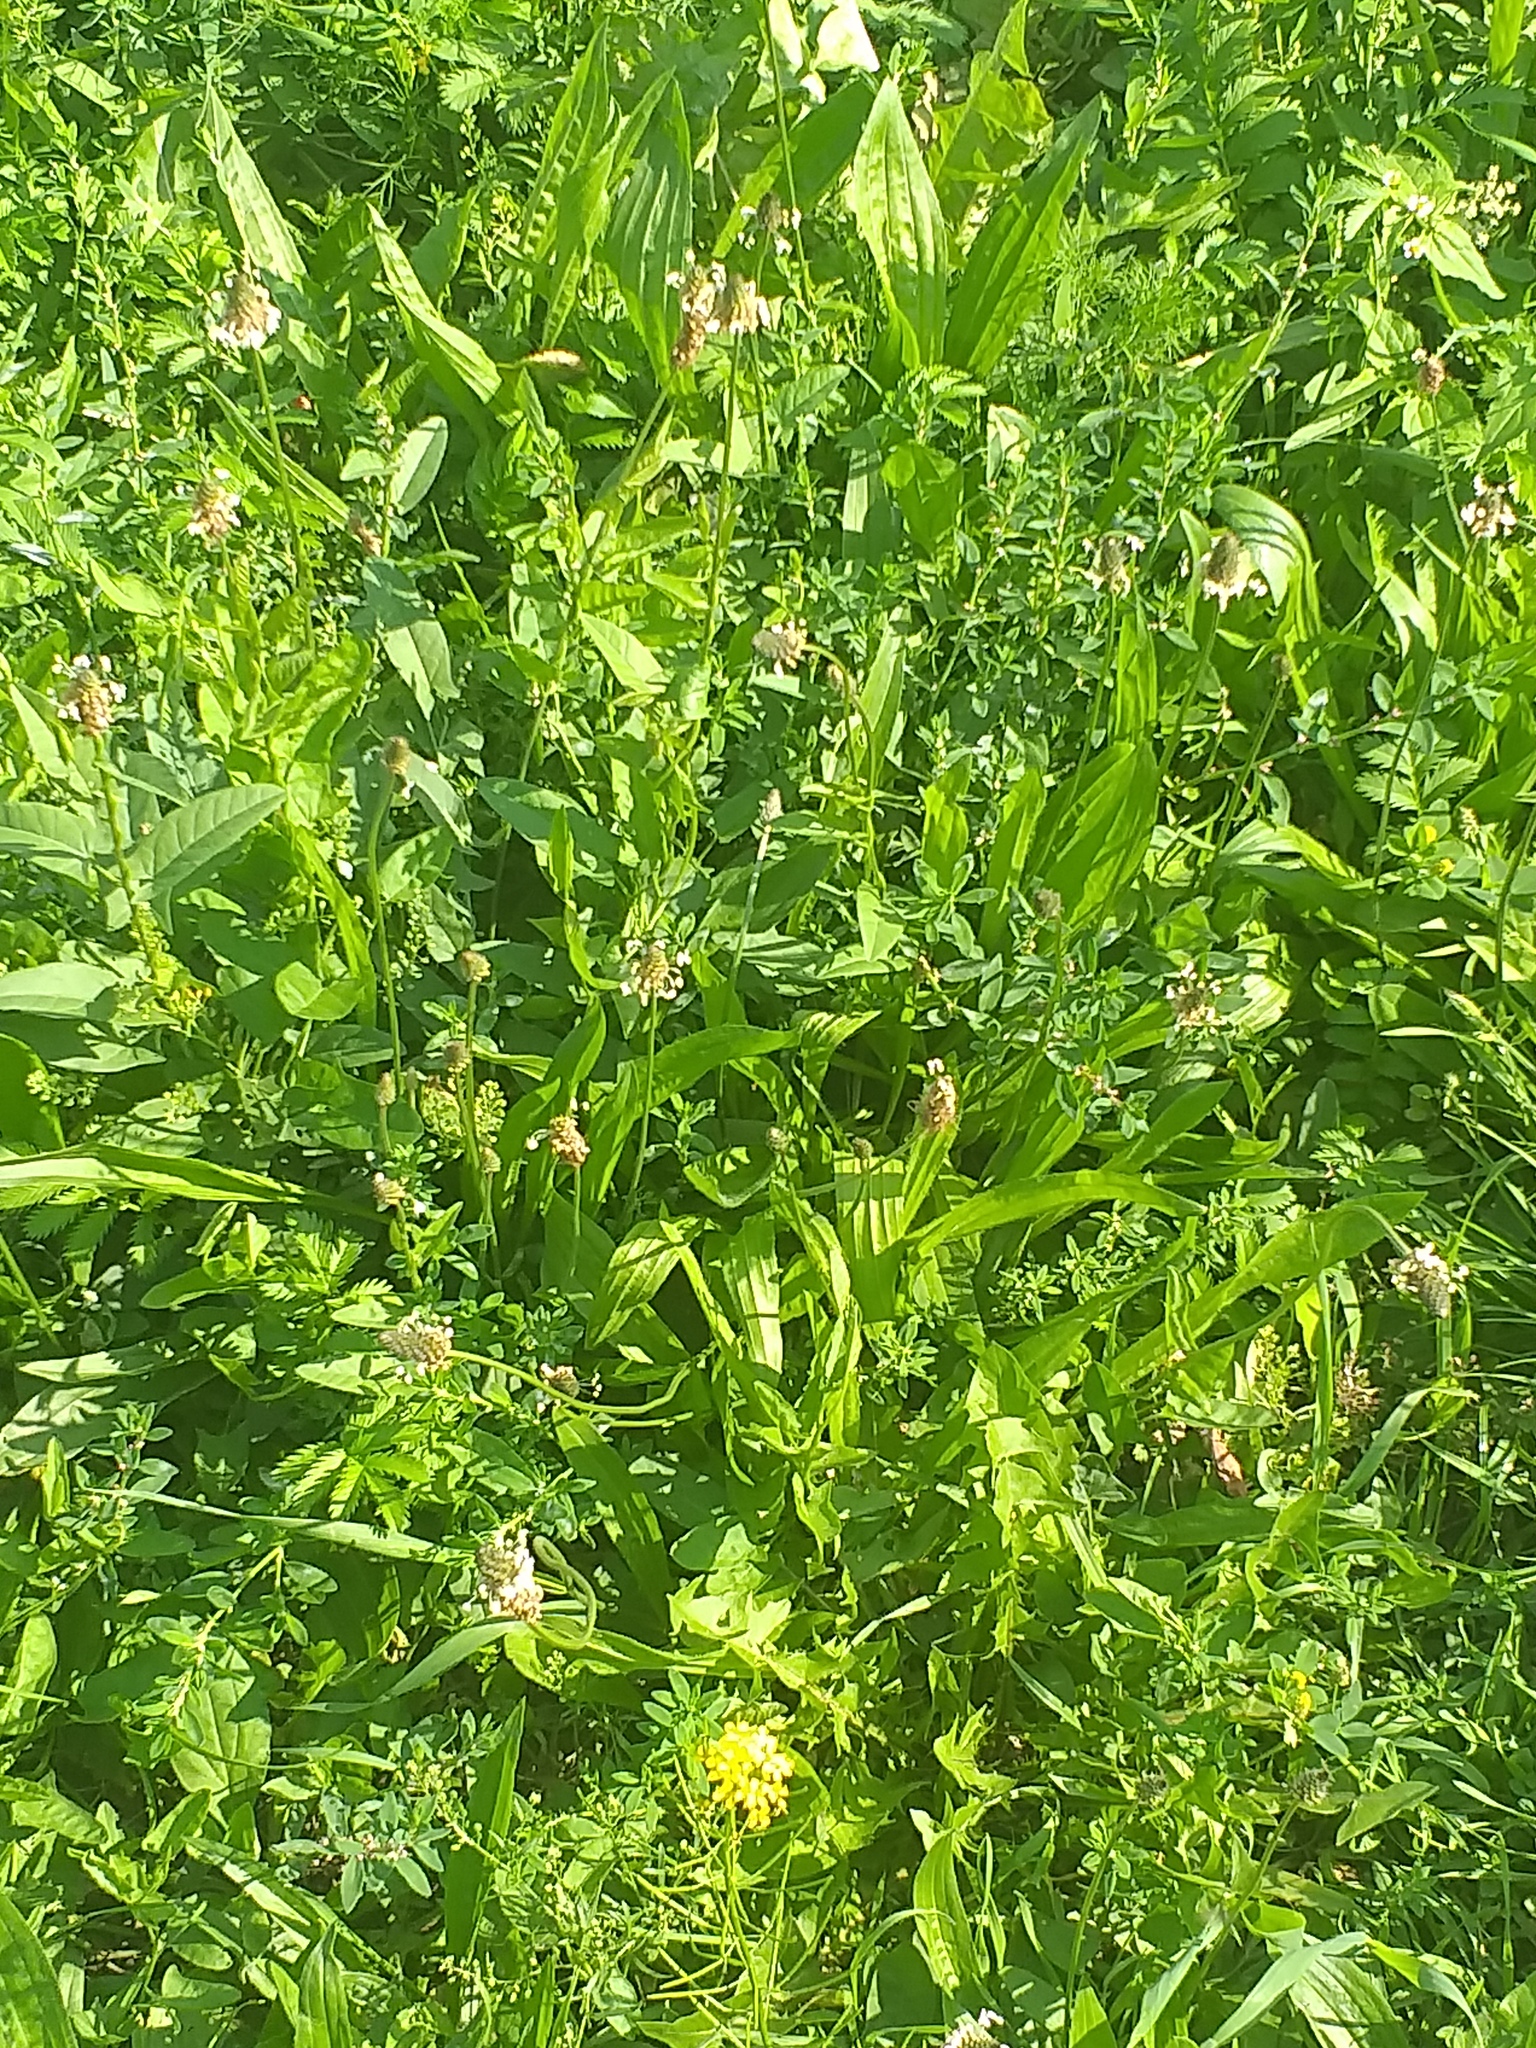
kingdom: Plantae
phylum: Tracheophyta
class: Magnoliopsida
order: Lamiales
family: Plantaginaceae
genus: Plantago
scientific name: Plantago lanceolata
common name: Ribwort plantain
